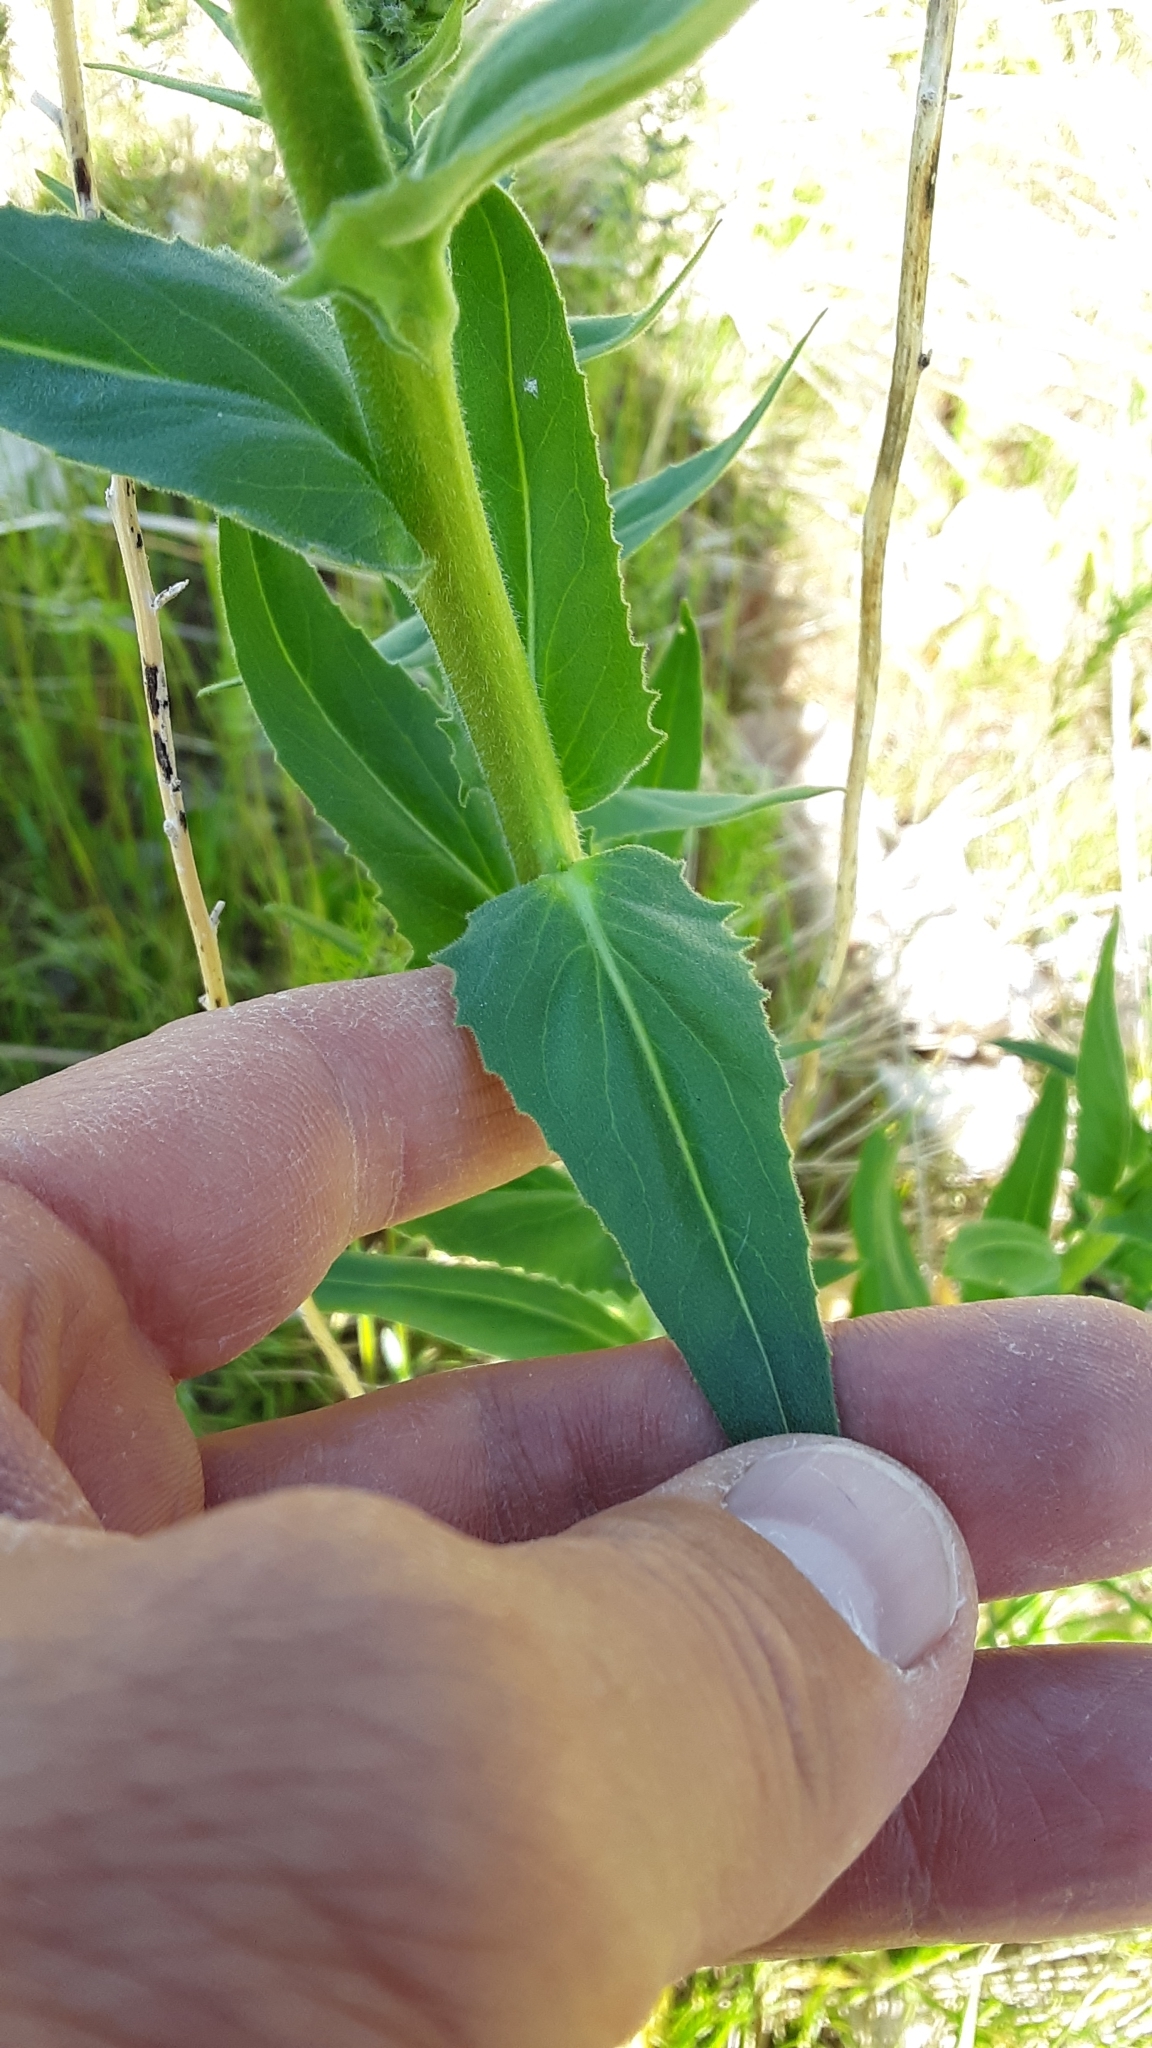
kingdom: Plantae
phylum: Tracheophyta
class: Magnoliopsida
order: Brassicales
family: Brassicaceae
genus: Hesperis
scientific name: Hesperis matronalis
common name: Dame's-violet
